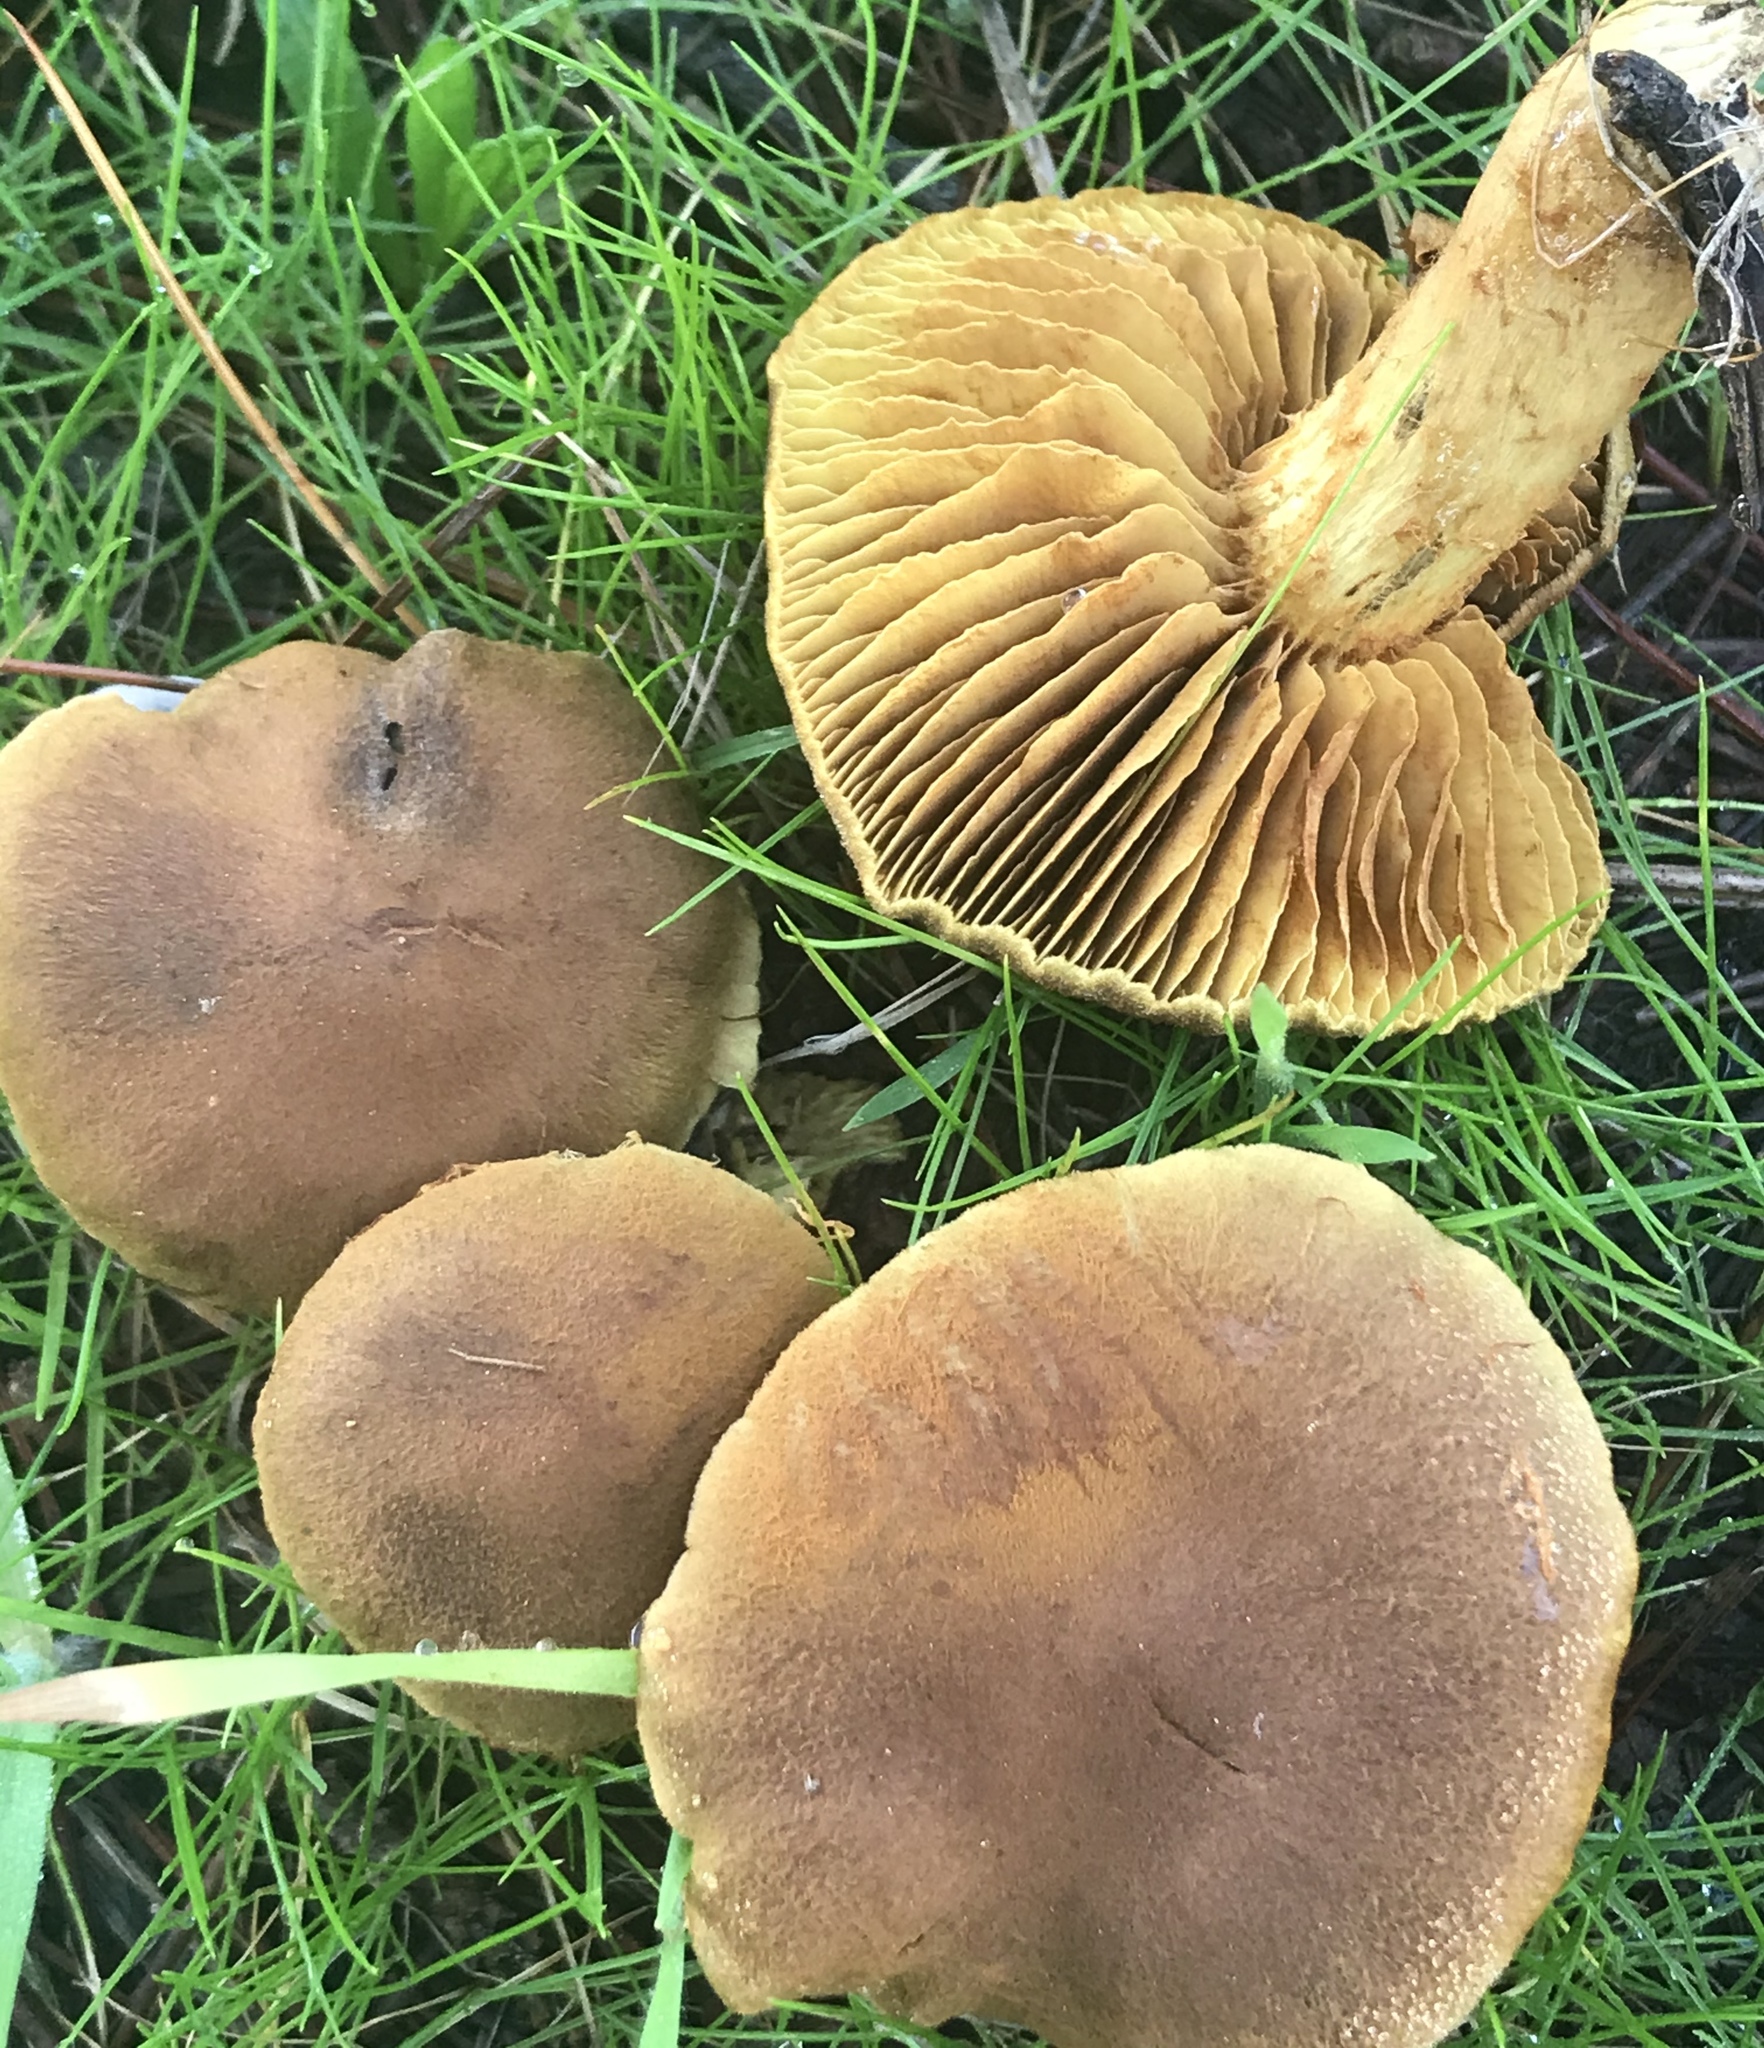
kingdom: Fungi
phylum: Basidiomycota
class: Agaricomycetes
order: Agaricales
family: Cortinariaceae
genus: Cortinarius
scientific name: Cortinarius croceus
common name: Saffron webcap
